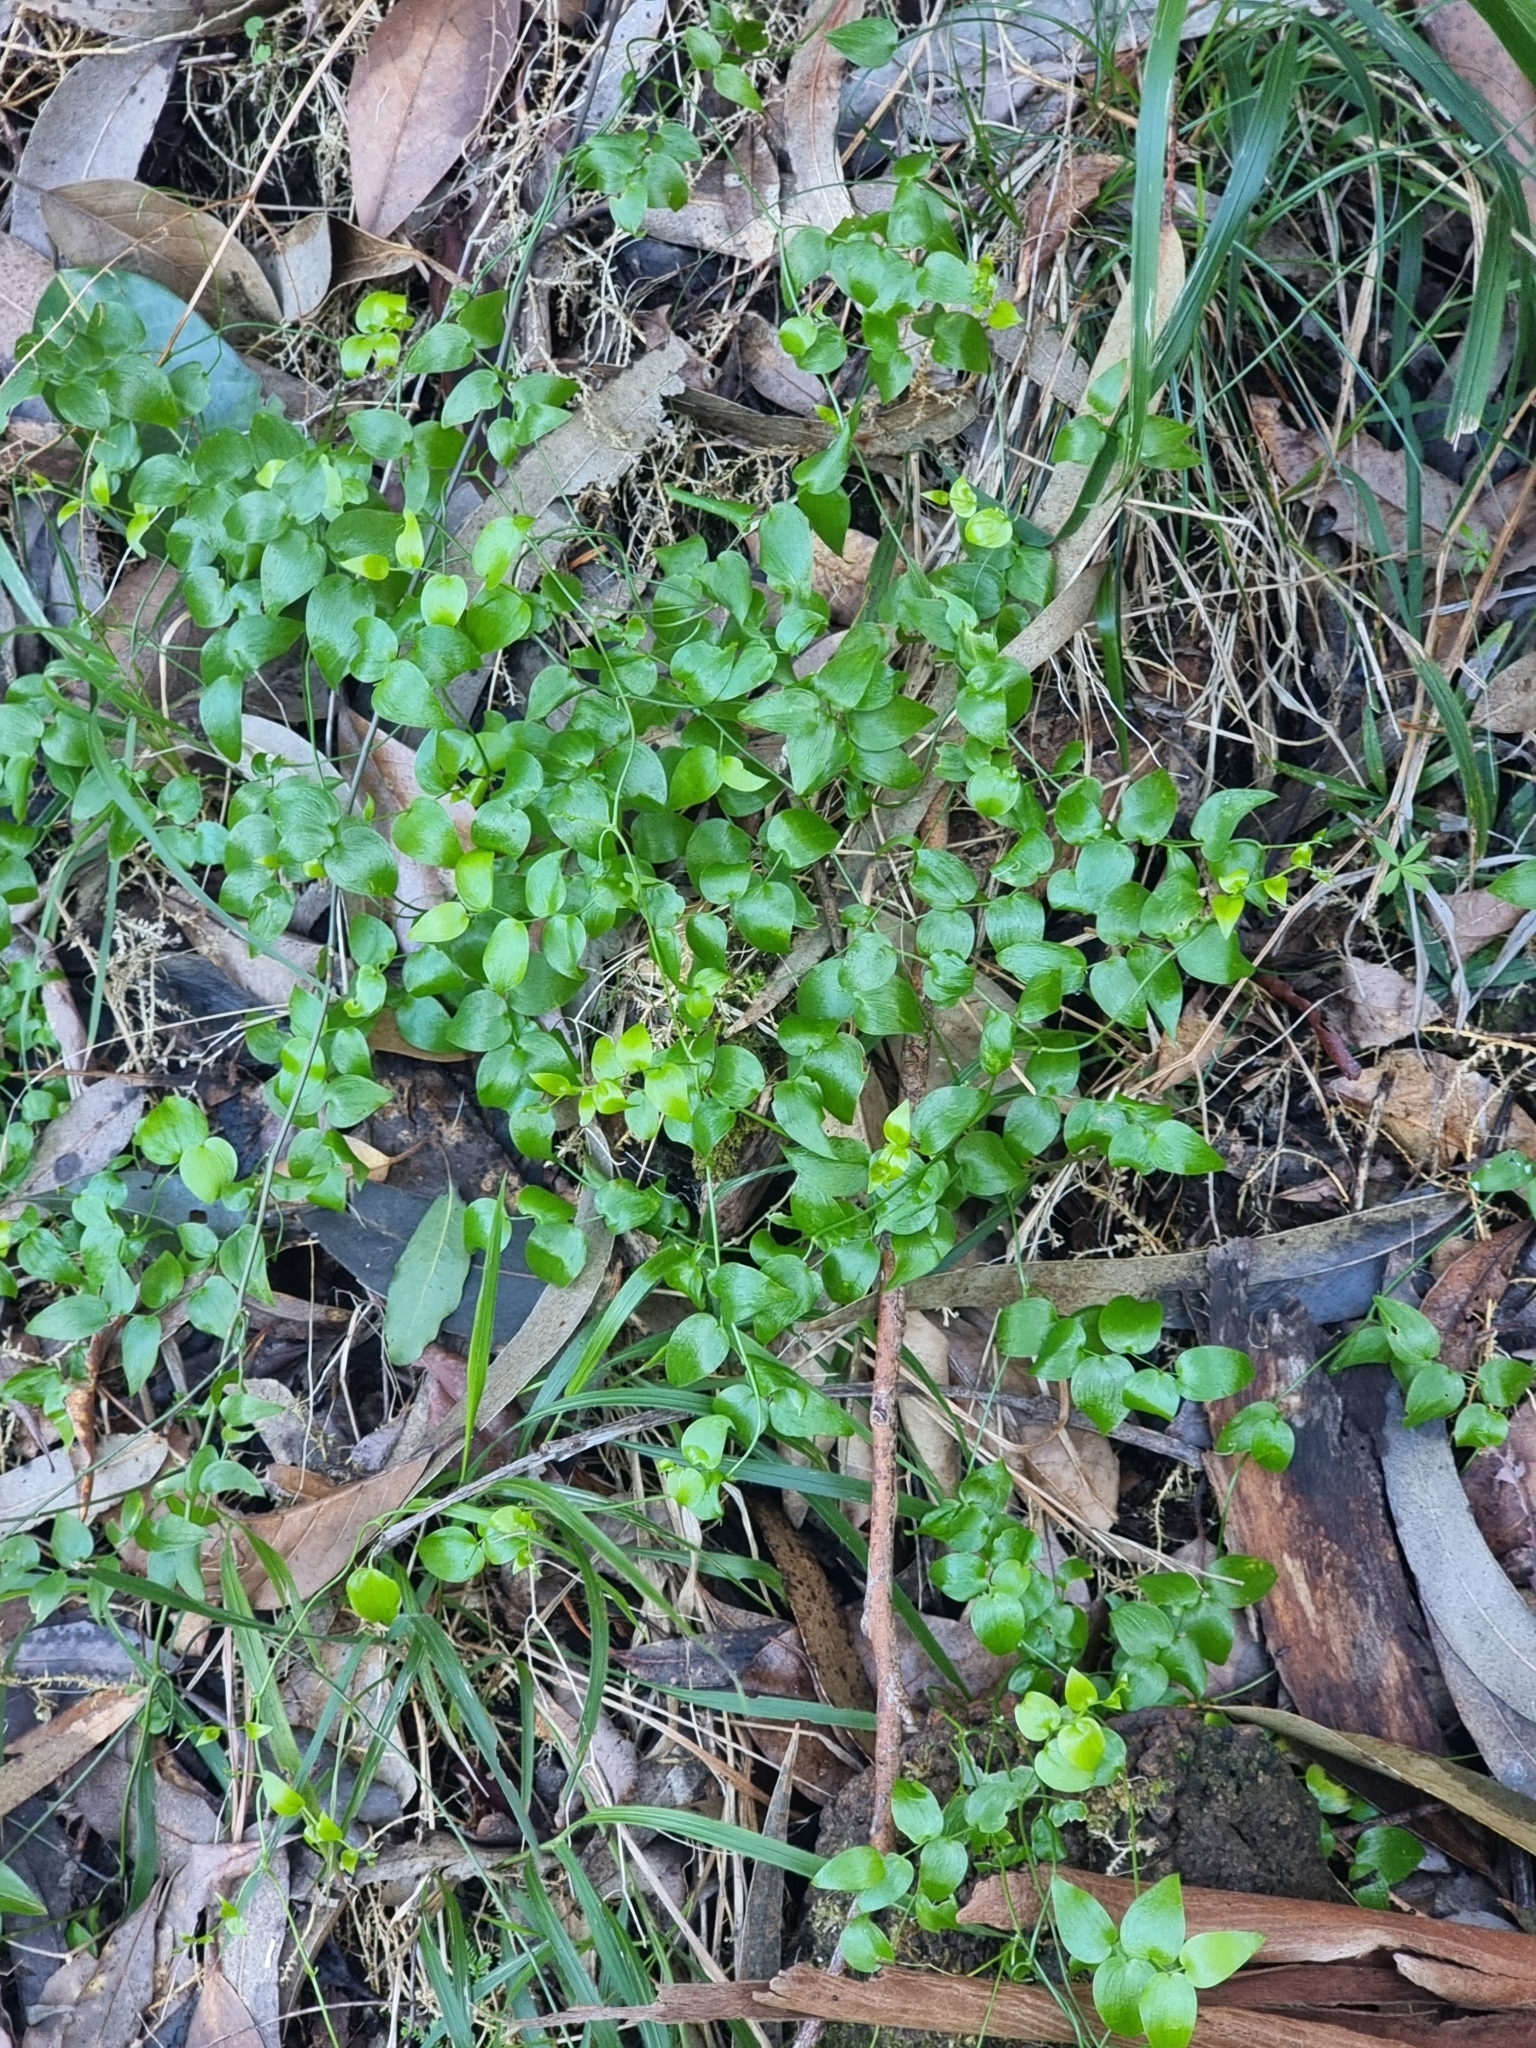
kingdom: Plantae
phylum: Tracheophyta
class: Liliopsida
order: Asparagales
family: Asparagaceae
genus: Asparagus
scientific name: Asparagus asparagoides
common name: African asparagus fern
